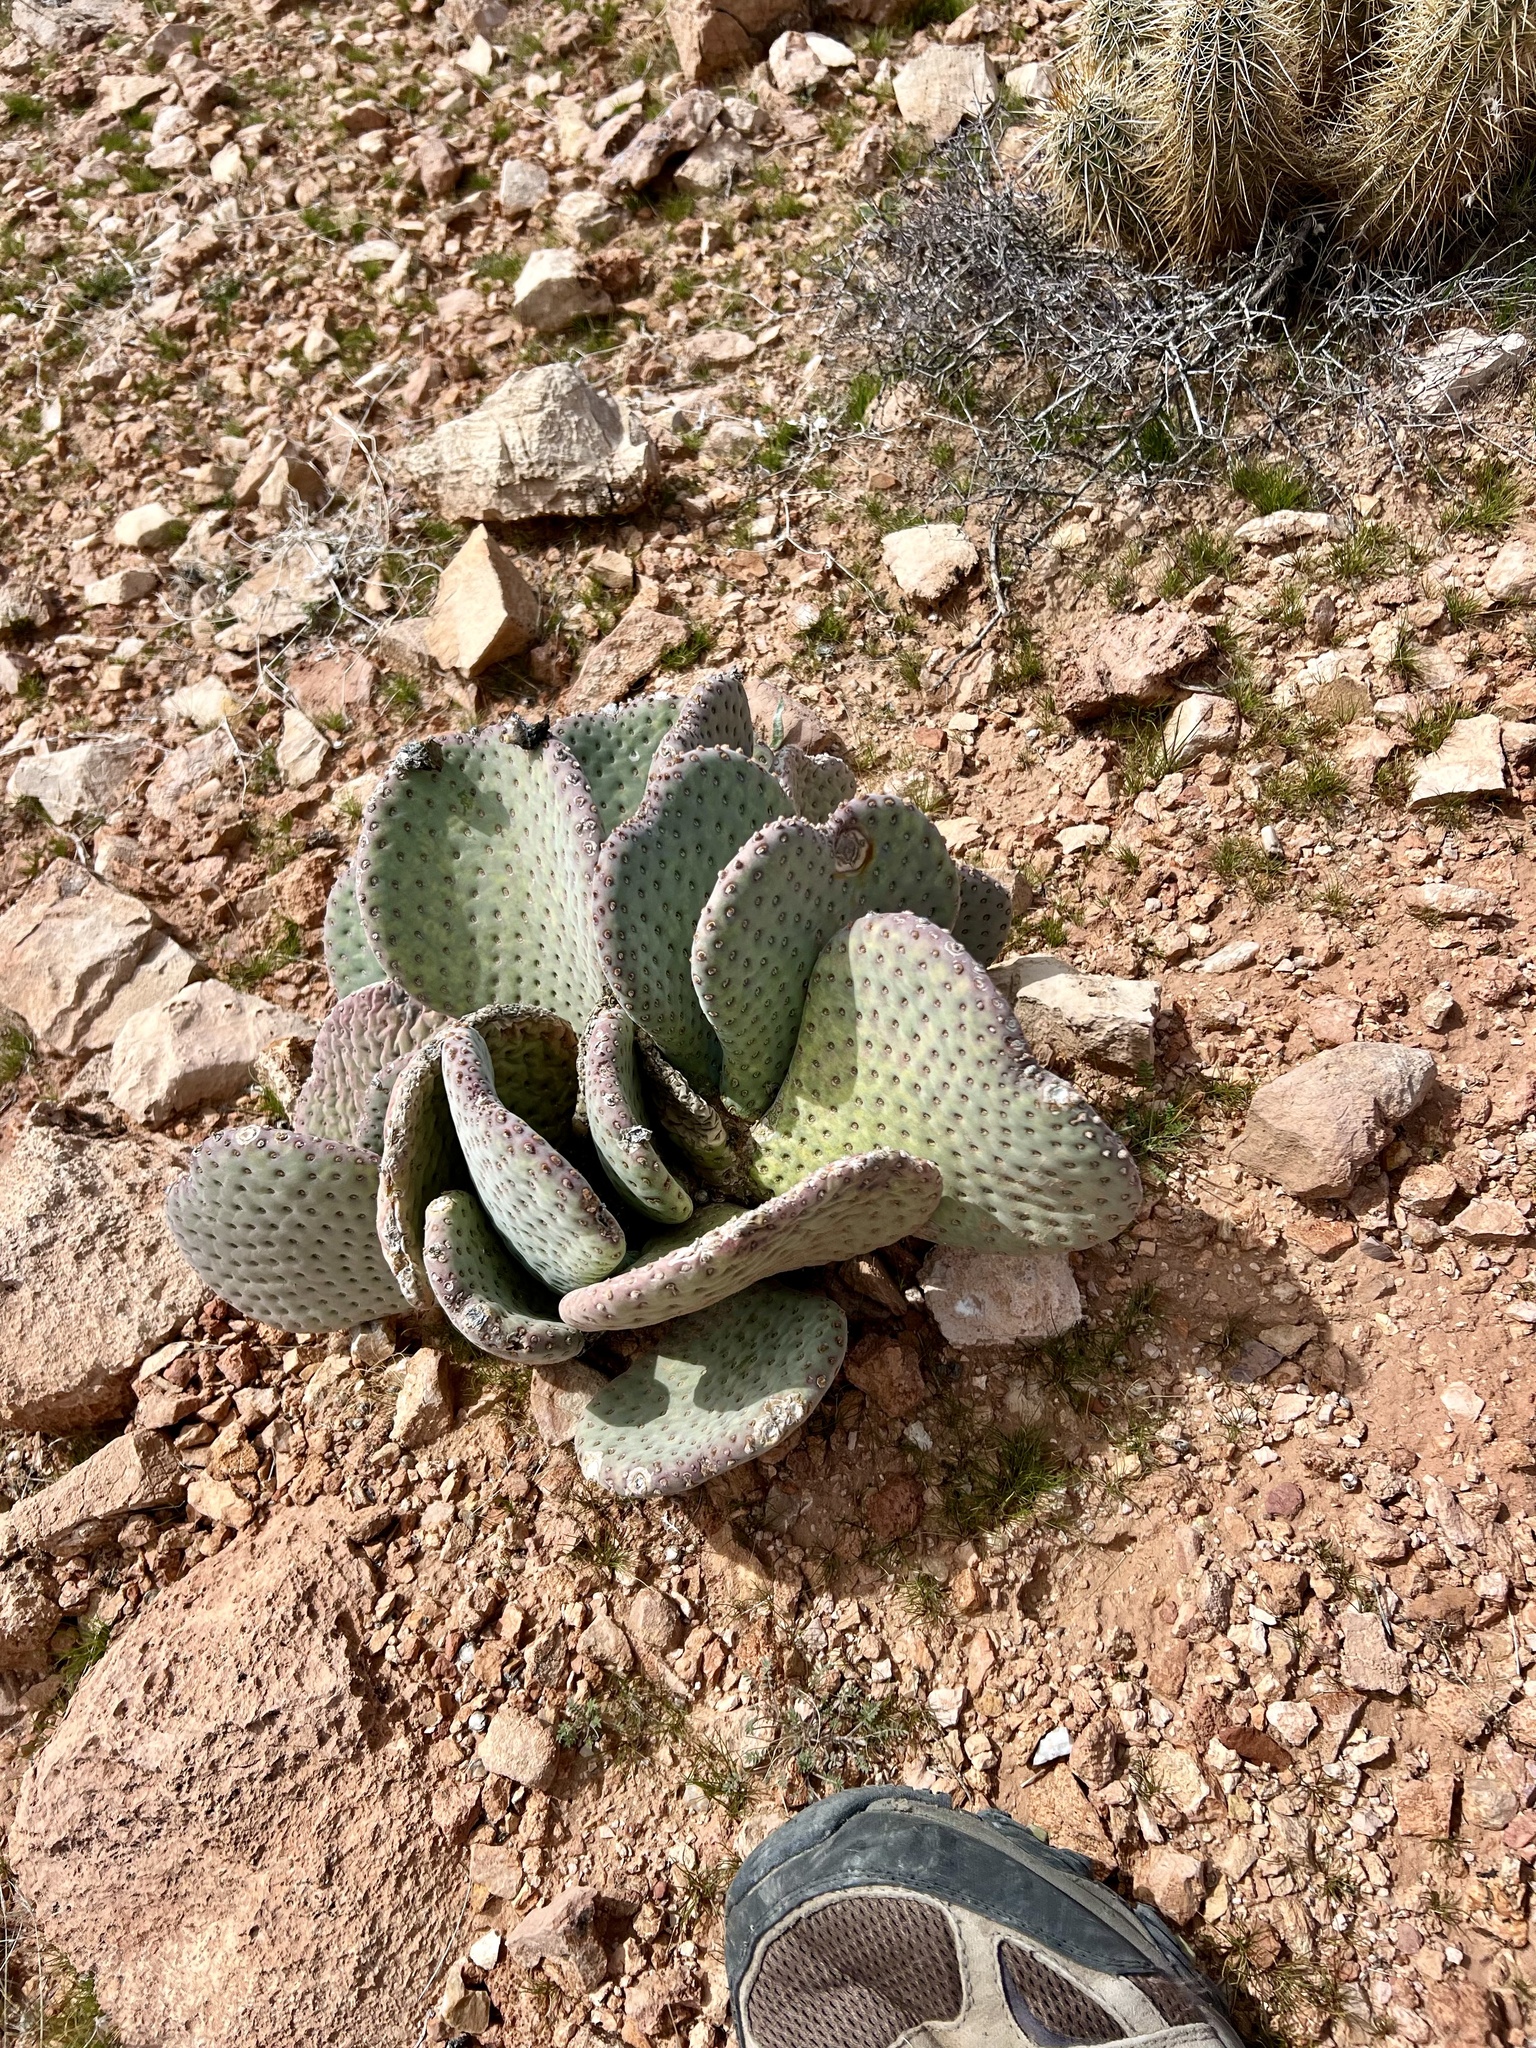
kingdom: Plantae
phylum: Tracheophyta
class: Magnoliopsida
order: Caryophyllales
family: Cactaceae
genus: Opuntia
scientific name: Opuntia basilaris
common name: Beavertail prickly-pear
